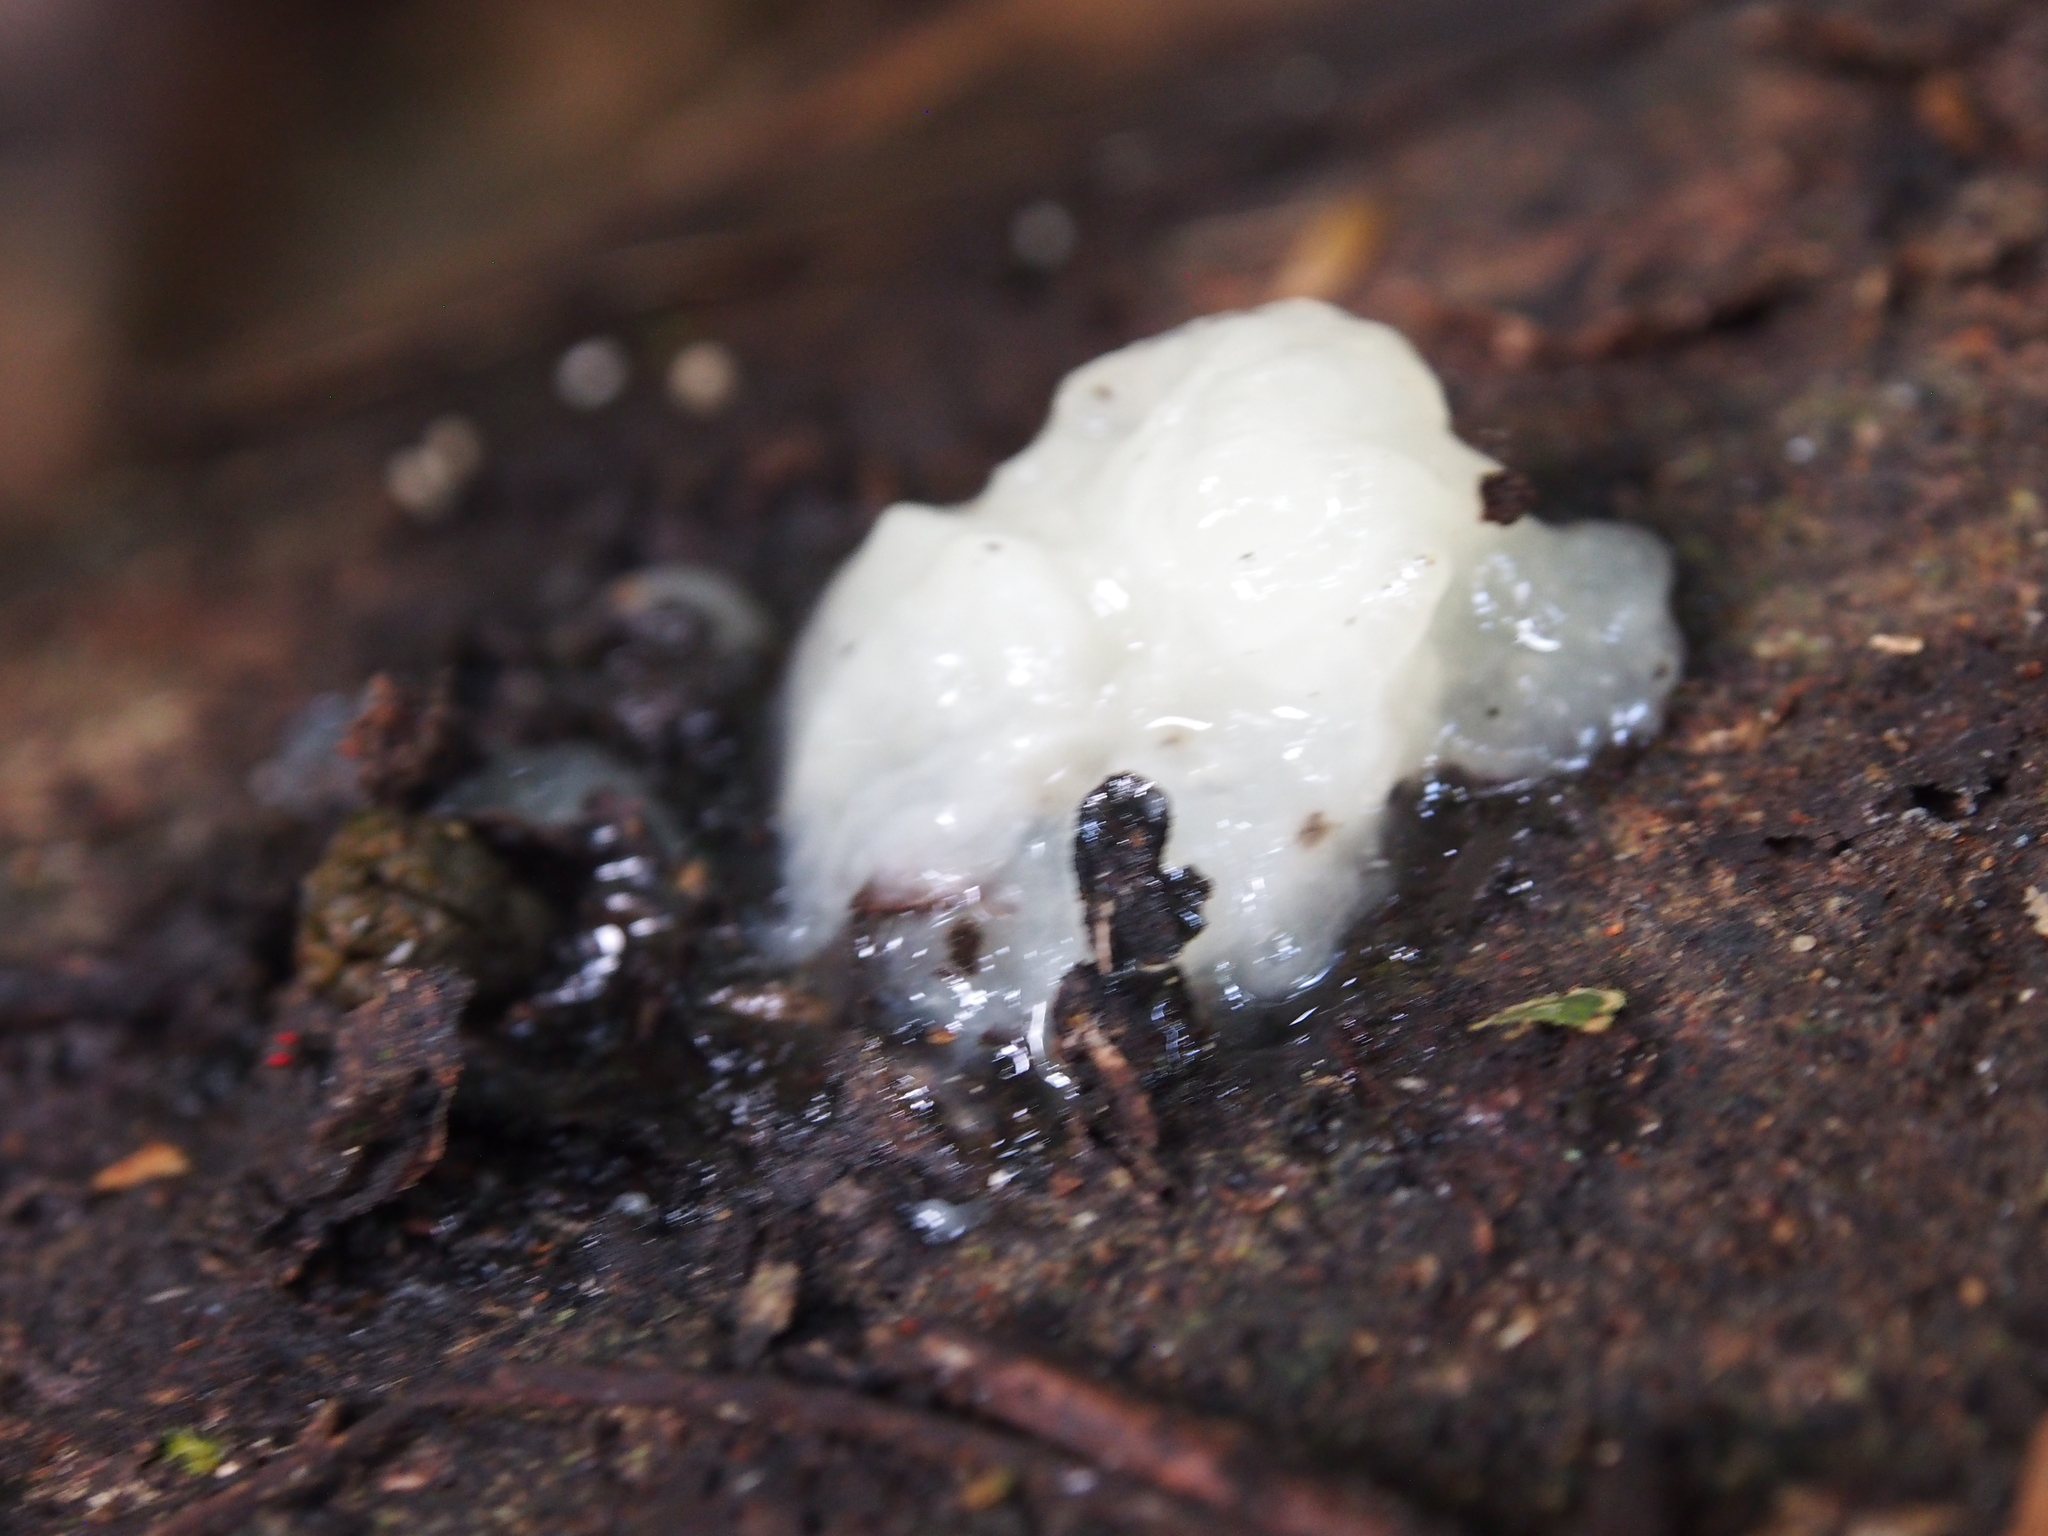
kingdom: Fungi
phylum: Basidiomycota
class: Tremellomycetes
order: Tremellales
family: Tremellaceae
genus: Tremella
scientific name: Tremella fuciformis
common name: Snow fungus
